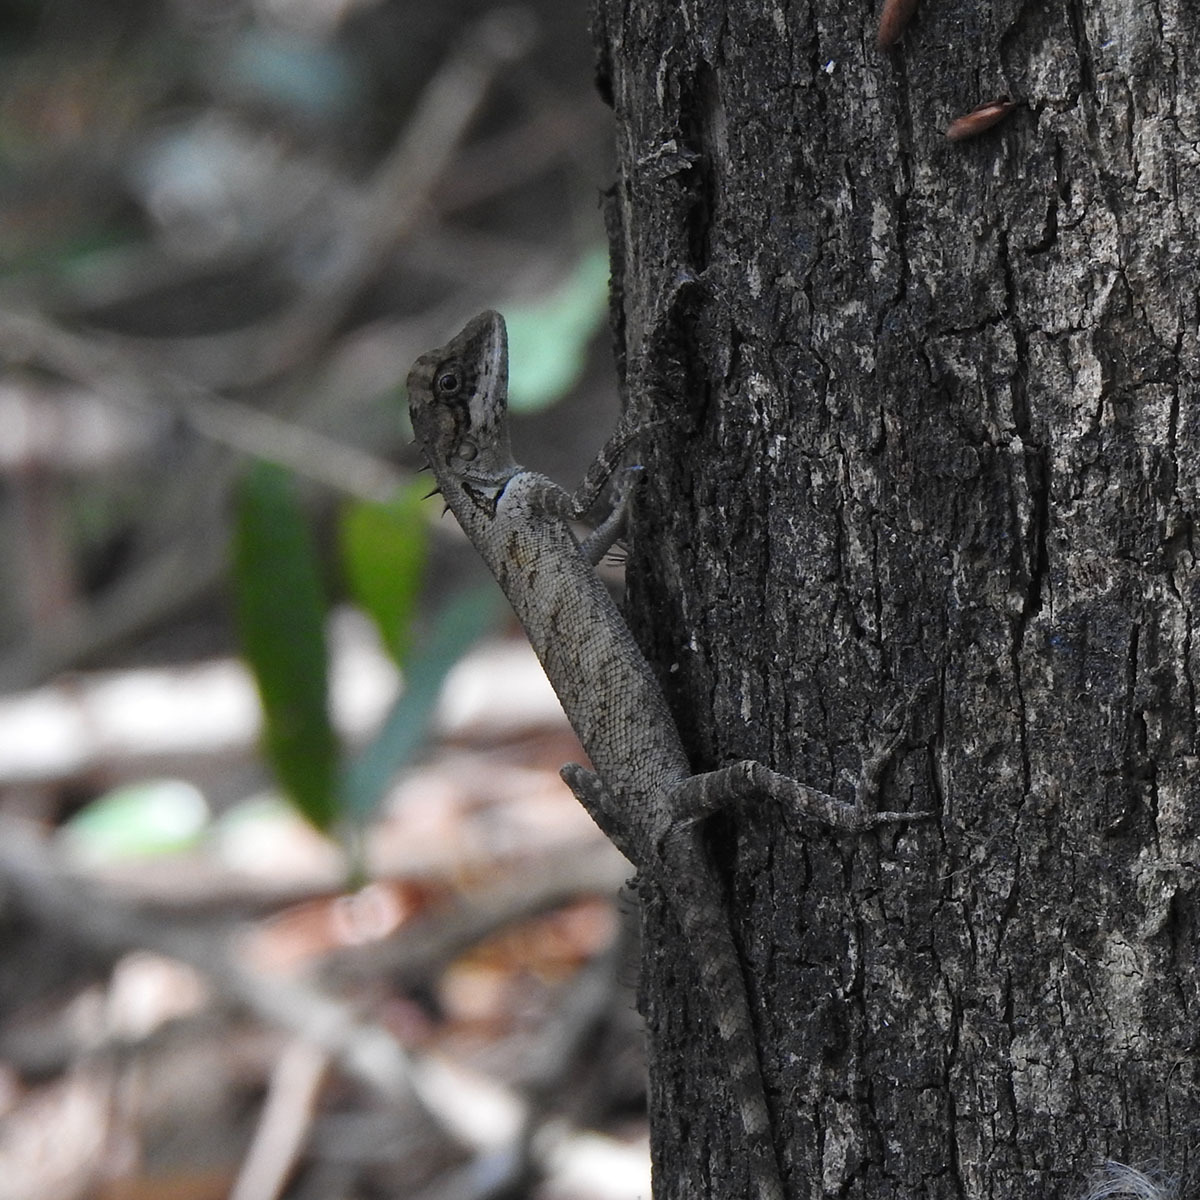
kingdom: Animalia
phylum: Chordata
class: Squamata
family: Agamidae
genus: Monilesaurus
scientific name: Monilesaurus ellioti
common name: Elliot's forest lizard
